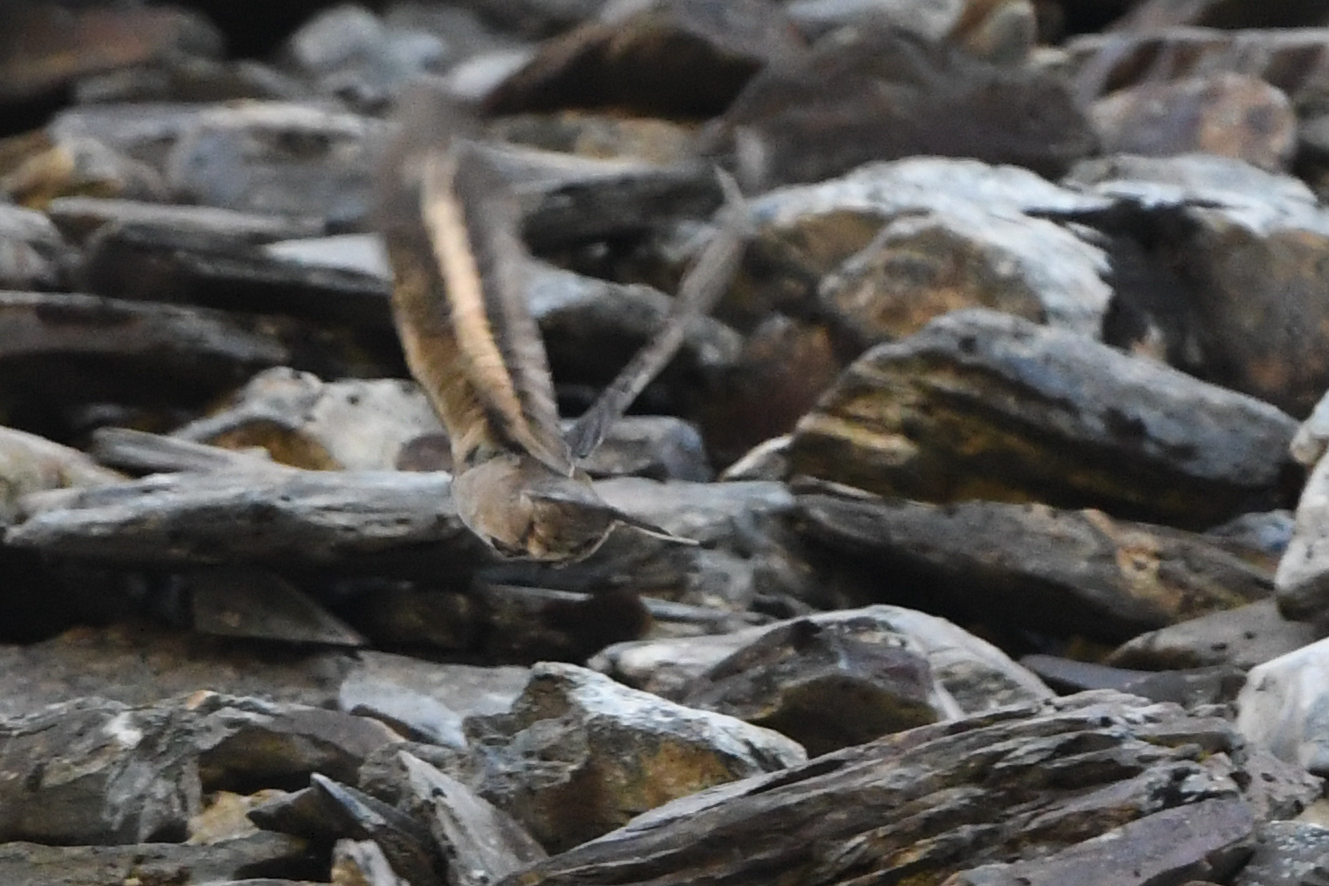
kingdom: Animalia
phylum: Chordata
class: Aves
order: Passeriformes
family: Furnariidae
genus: Cinclodes
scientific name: Cinclodes fuscus
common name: Buff-winged cinclodes
